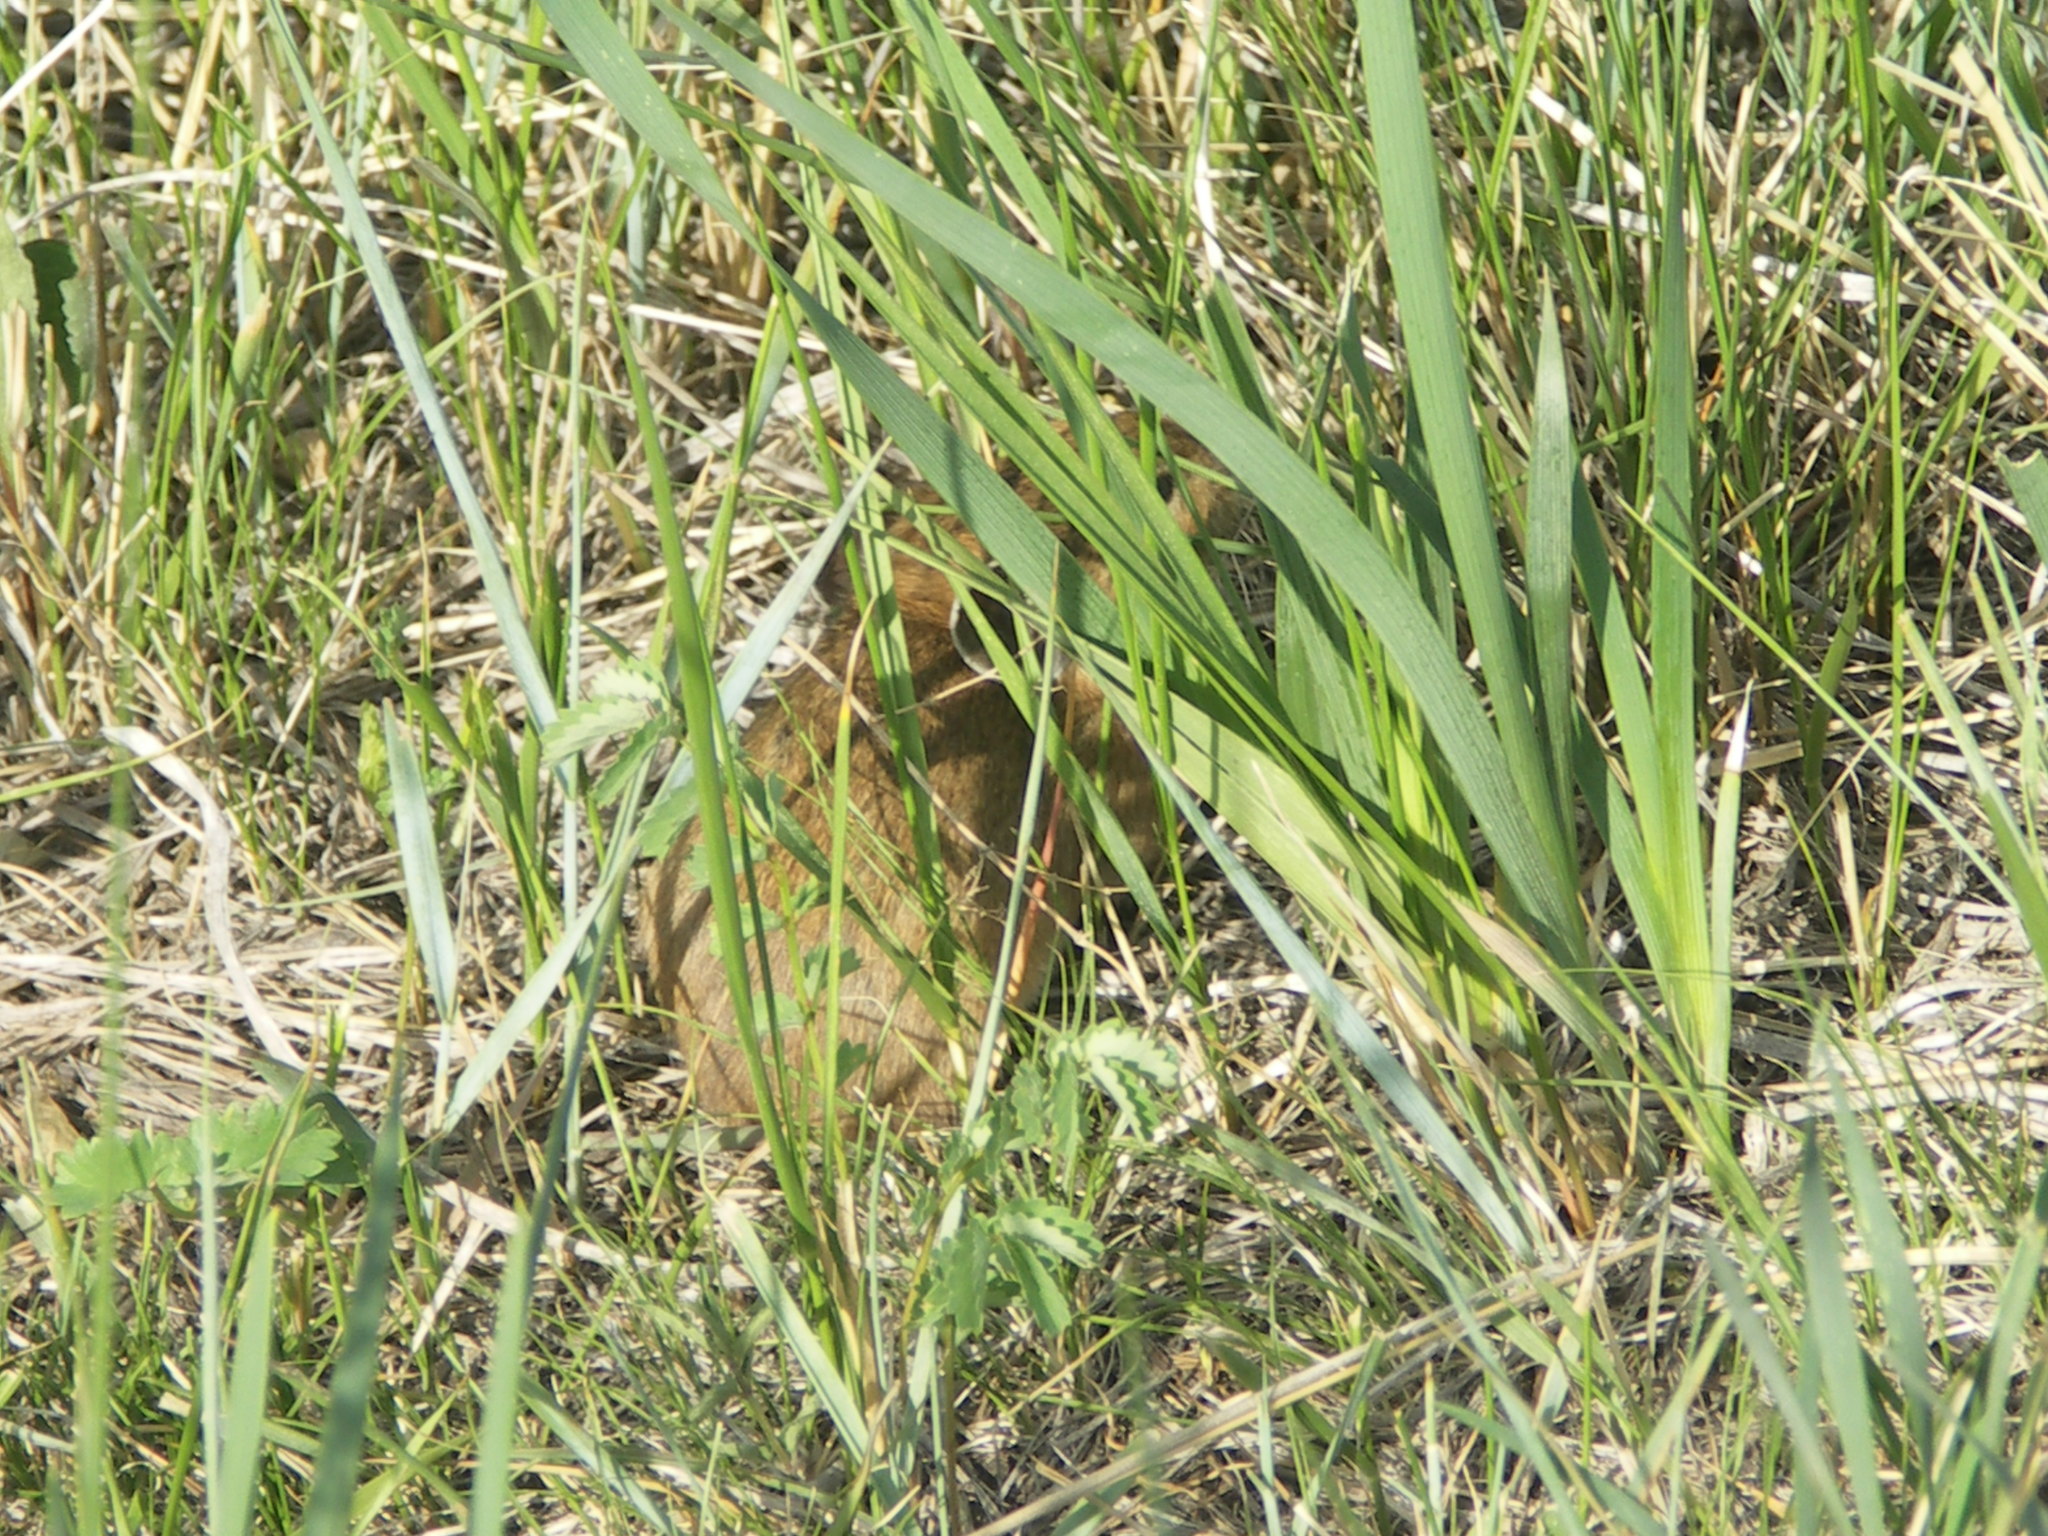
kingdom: Animalia
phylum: Chordata
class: Mammalia
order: Lagomorpha
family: Ochotonidae
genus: Ochotona
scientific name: Ochotona dauurica
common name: Daurian pika
